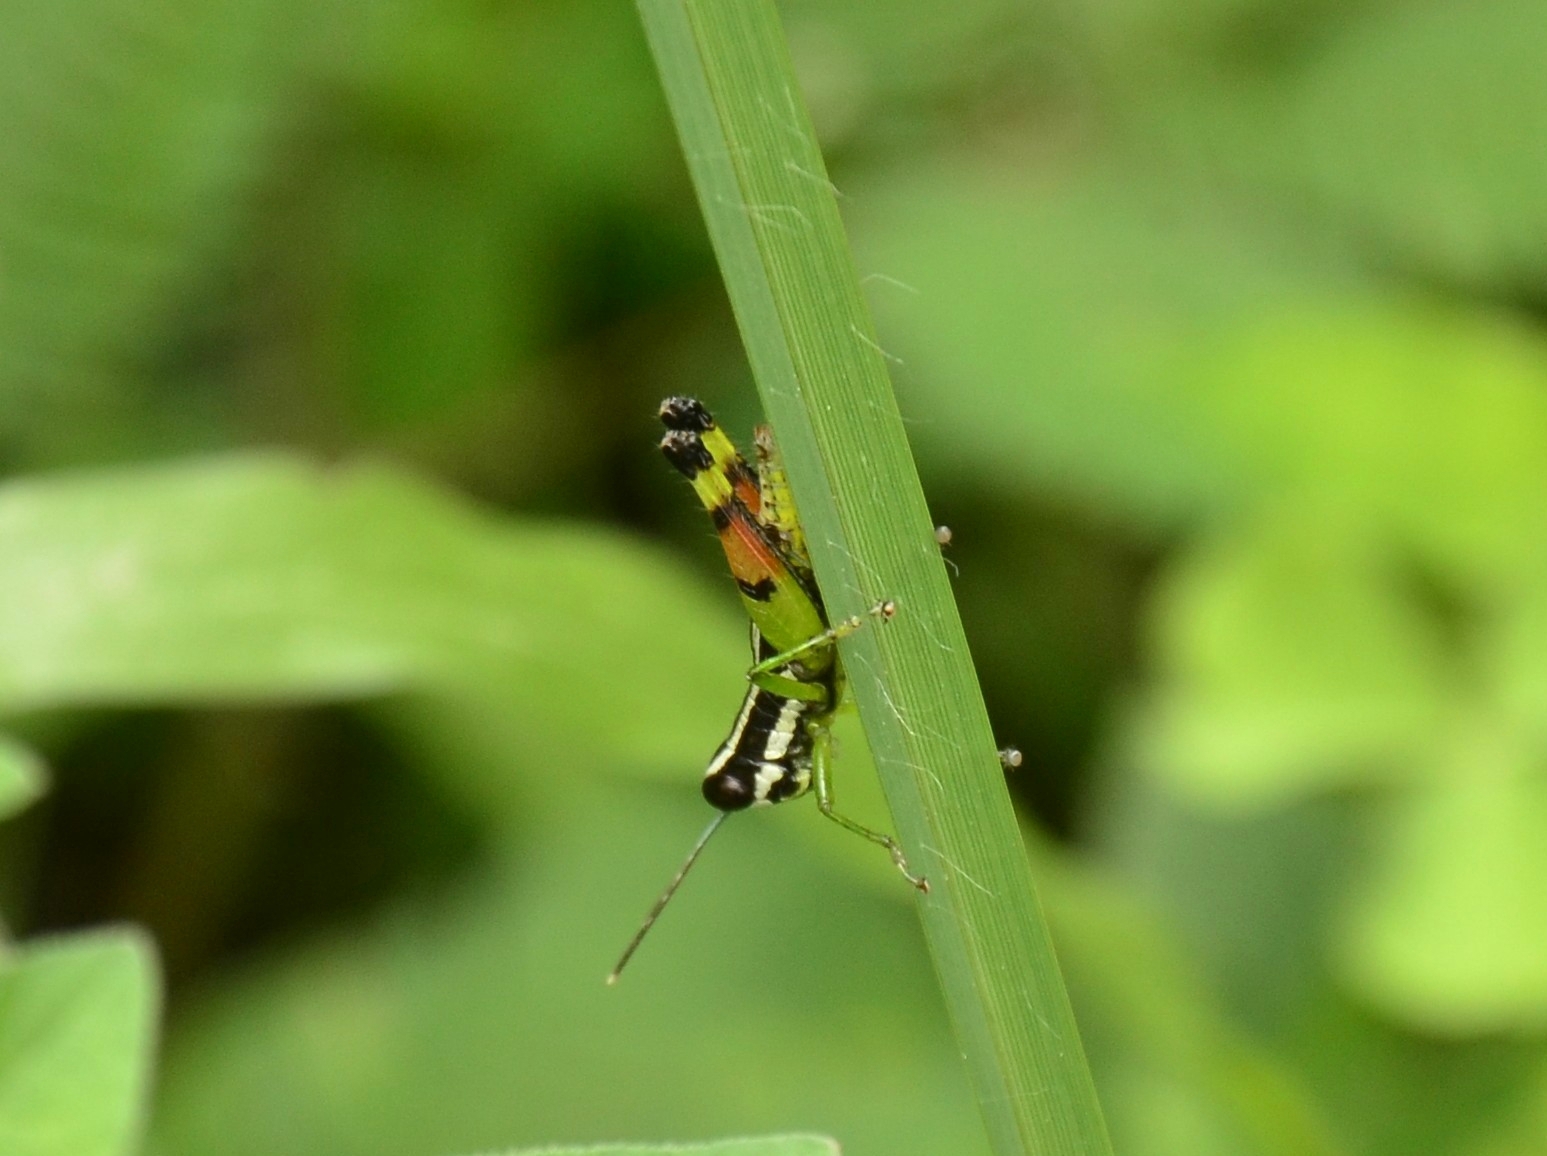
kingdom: Animalia
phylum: Arthropoda
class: Insecta
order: Orthoptera
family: Acrididae
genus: Chitaura
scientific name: Chitaura indica
